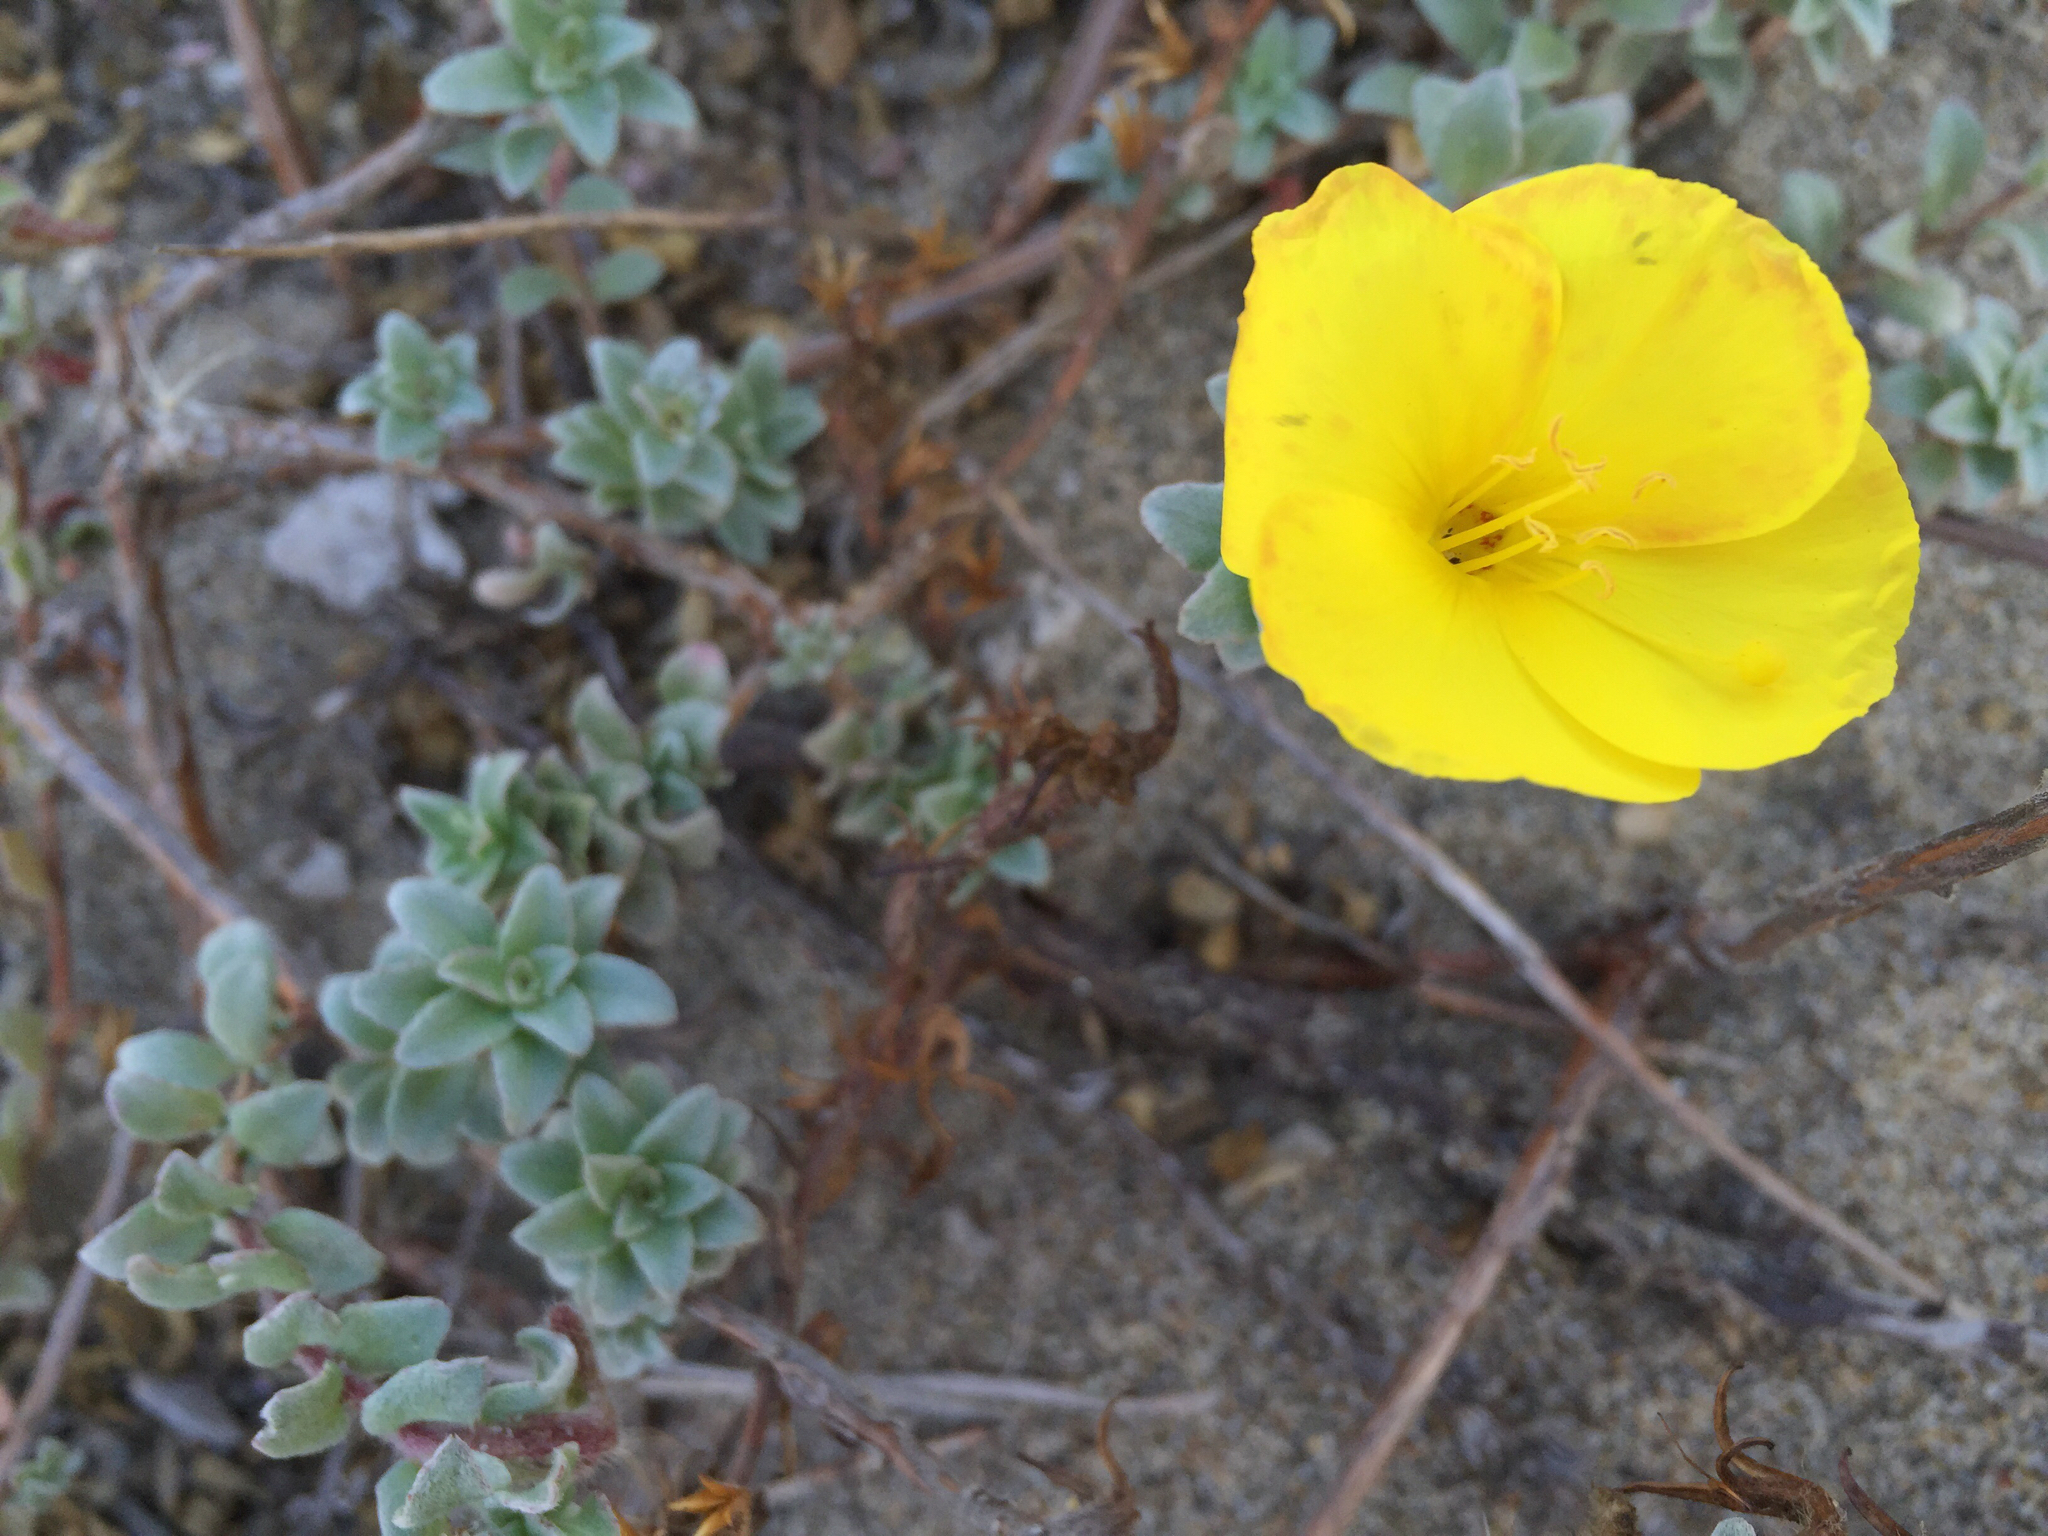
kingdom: Plantae
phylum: Tracheophyta
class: Magnoliopsida
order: Myrtales
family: Onagraceae
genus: Camissoniopsis
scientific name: Camissoniopsis cheiranthifolia
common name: Beach suncup
